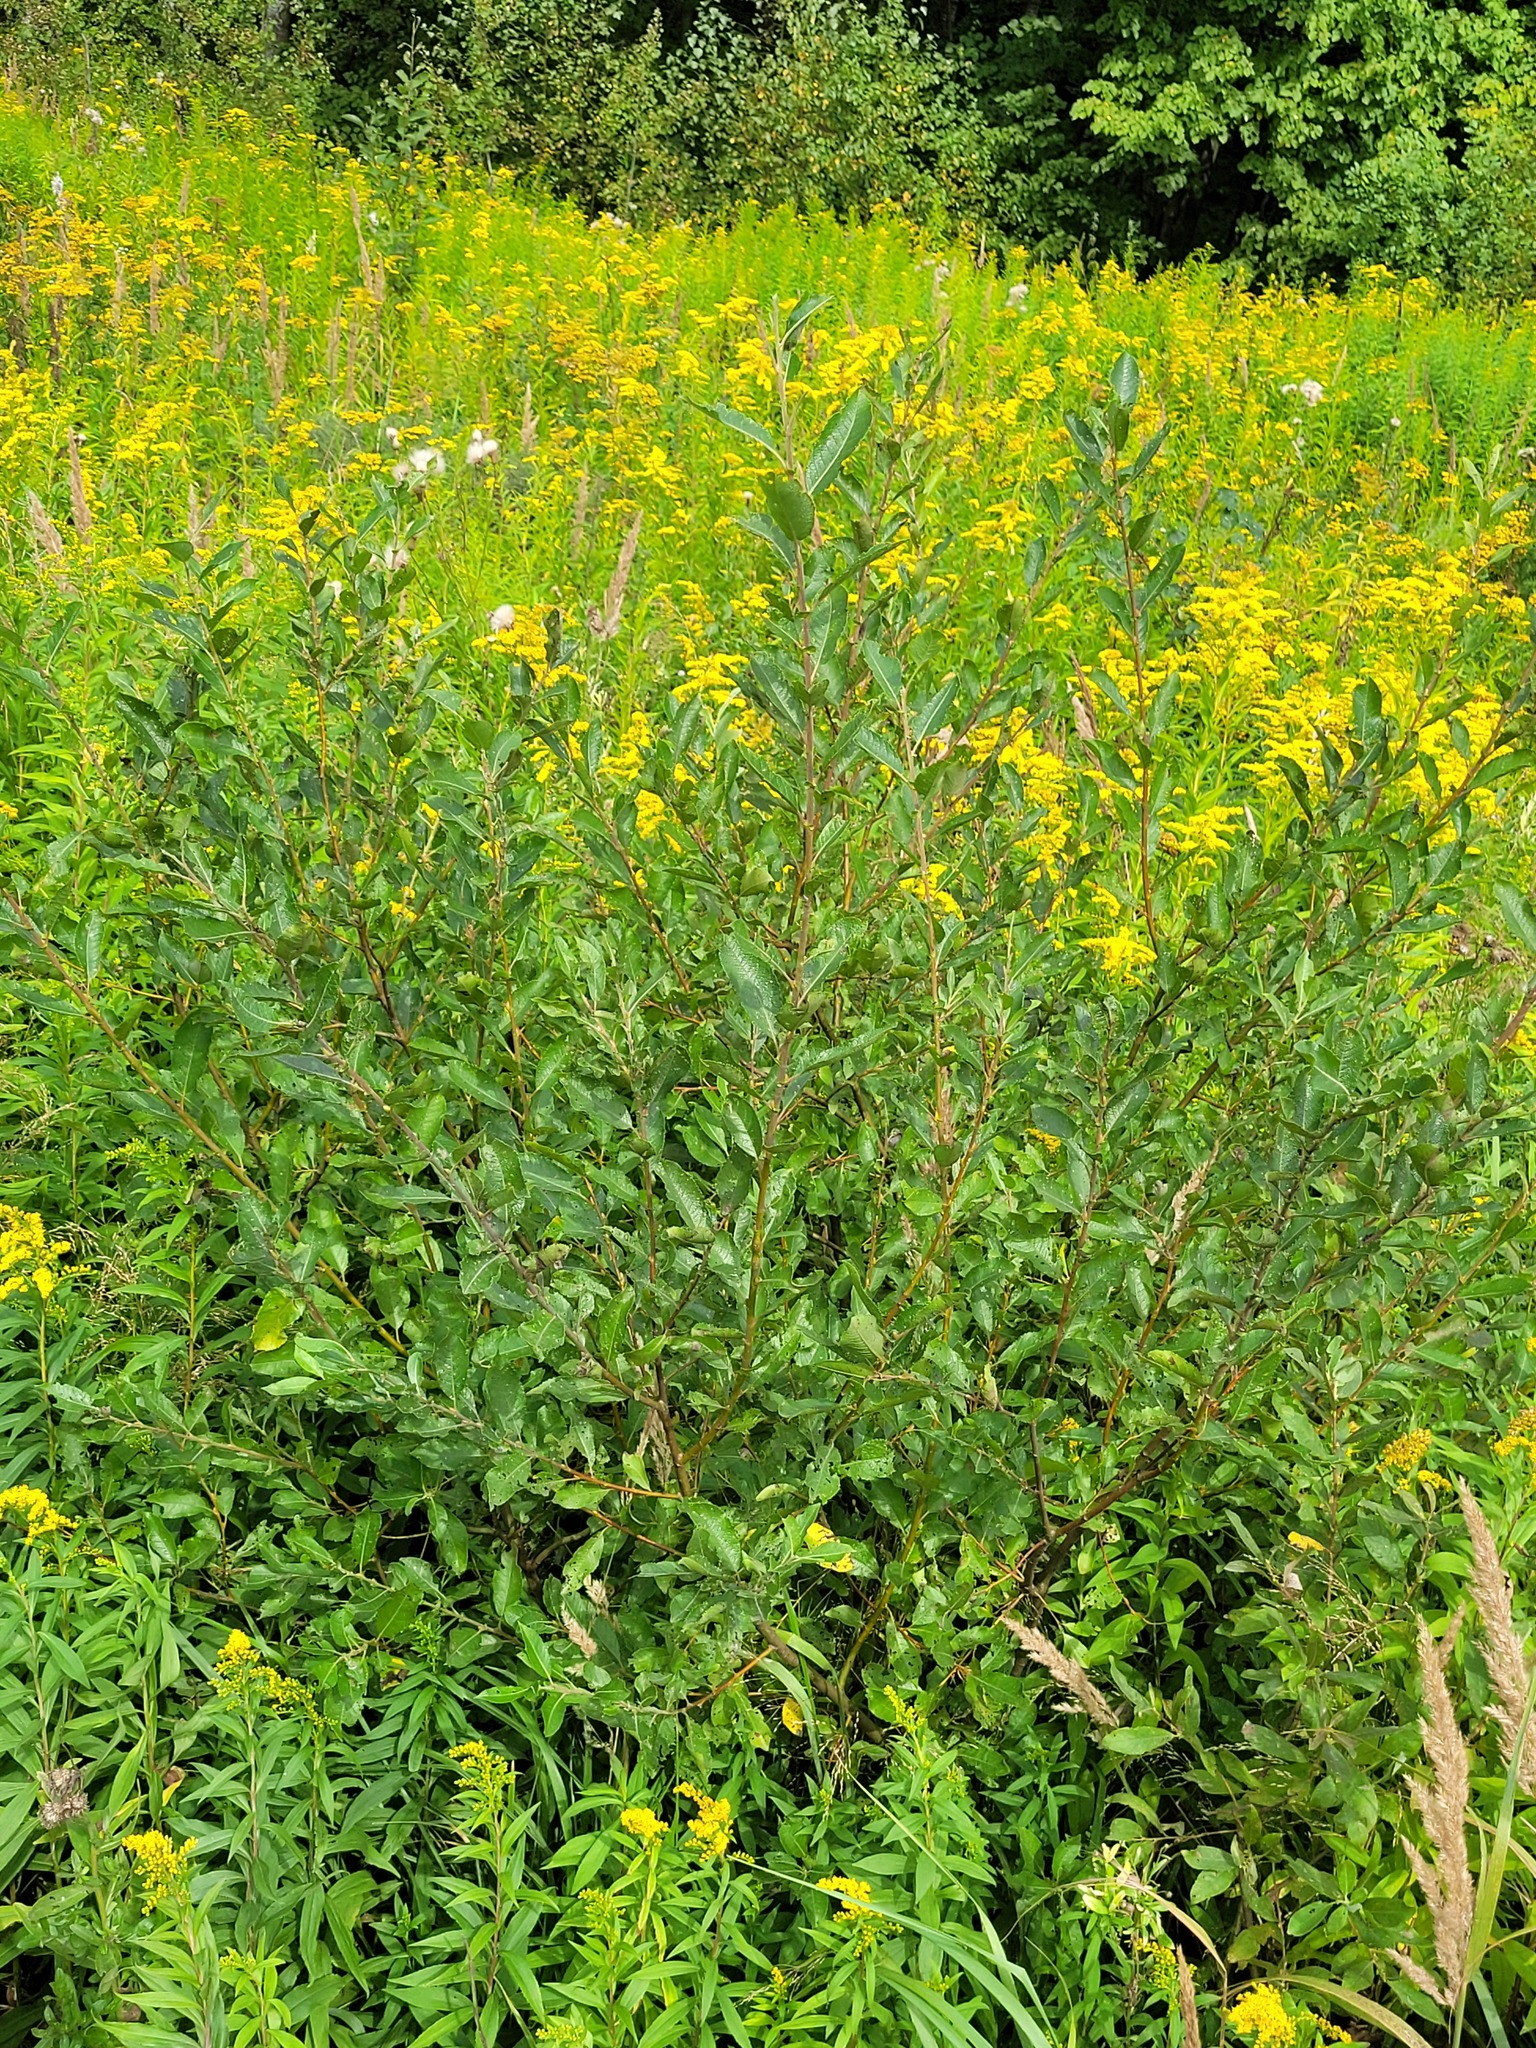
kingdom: Plantae
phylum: Tracheophyta
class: Magnoliopsida
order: Malpighiales
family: Salicaceae
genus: Salix
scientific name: Salix myrsinifolia
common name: Dark-leaved willow
